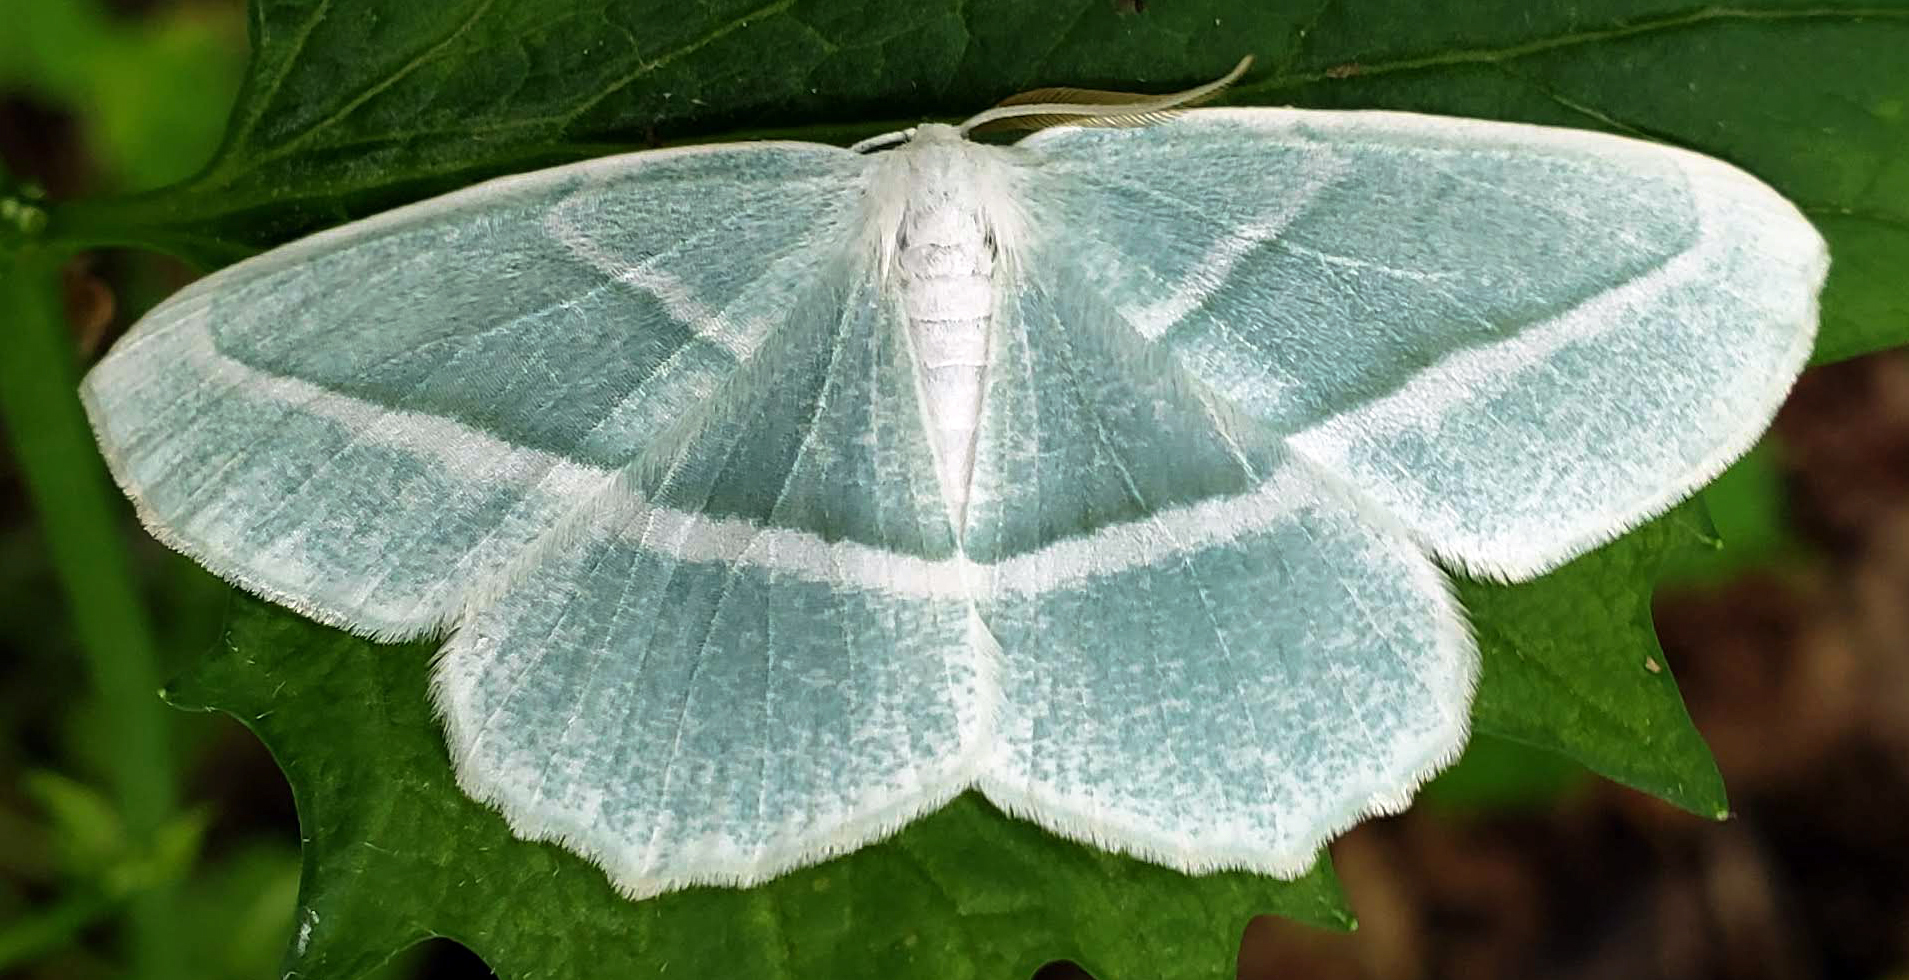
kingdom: Animalia
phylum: Arthropoda
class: Insecta
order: Lepidoptera
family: Geometridae
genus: Campaea
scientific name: Campaea perlata
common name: Fringed looper
